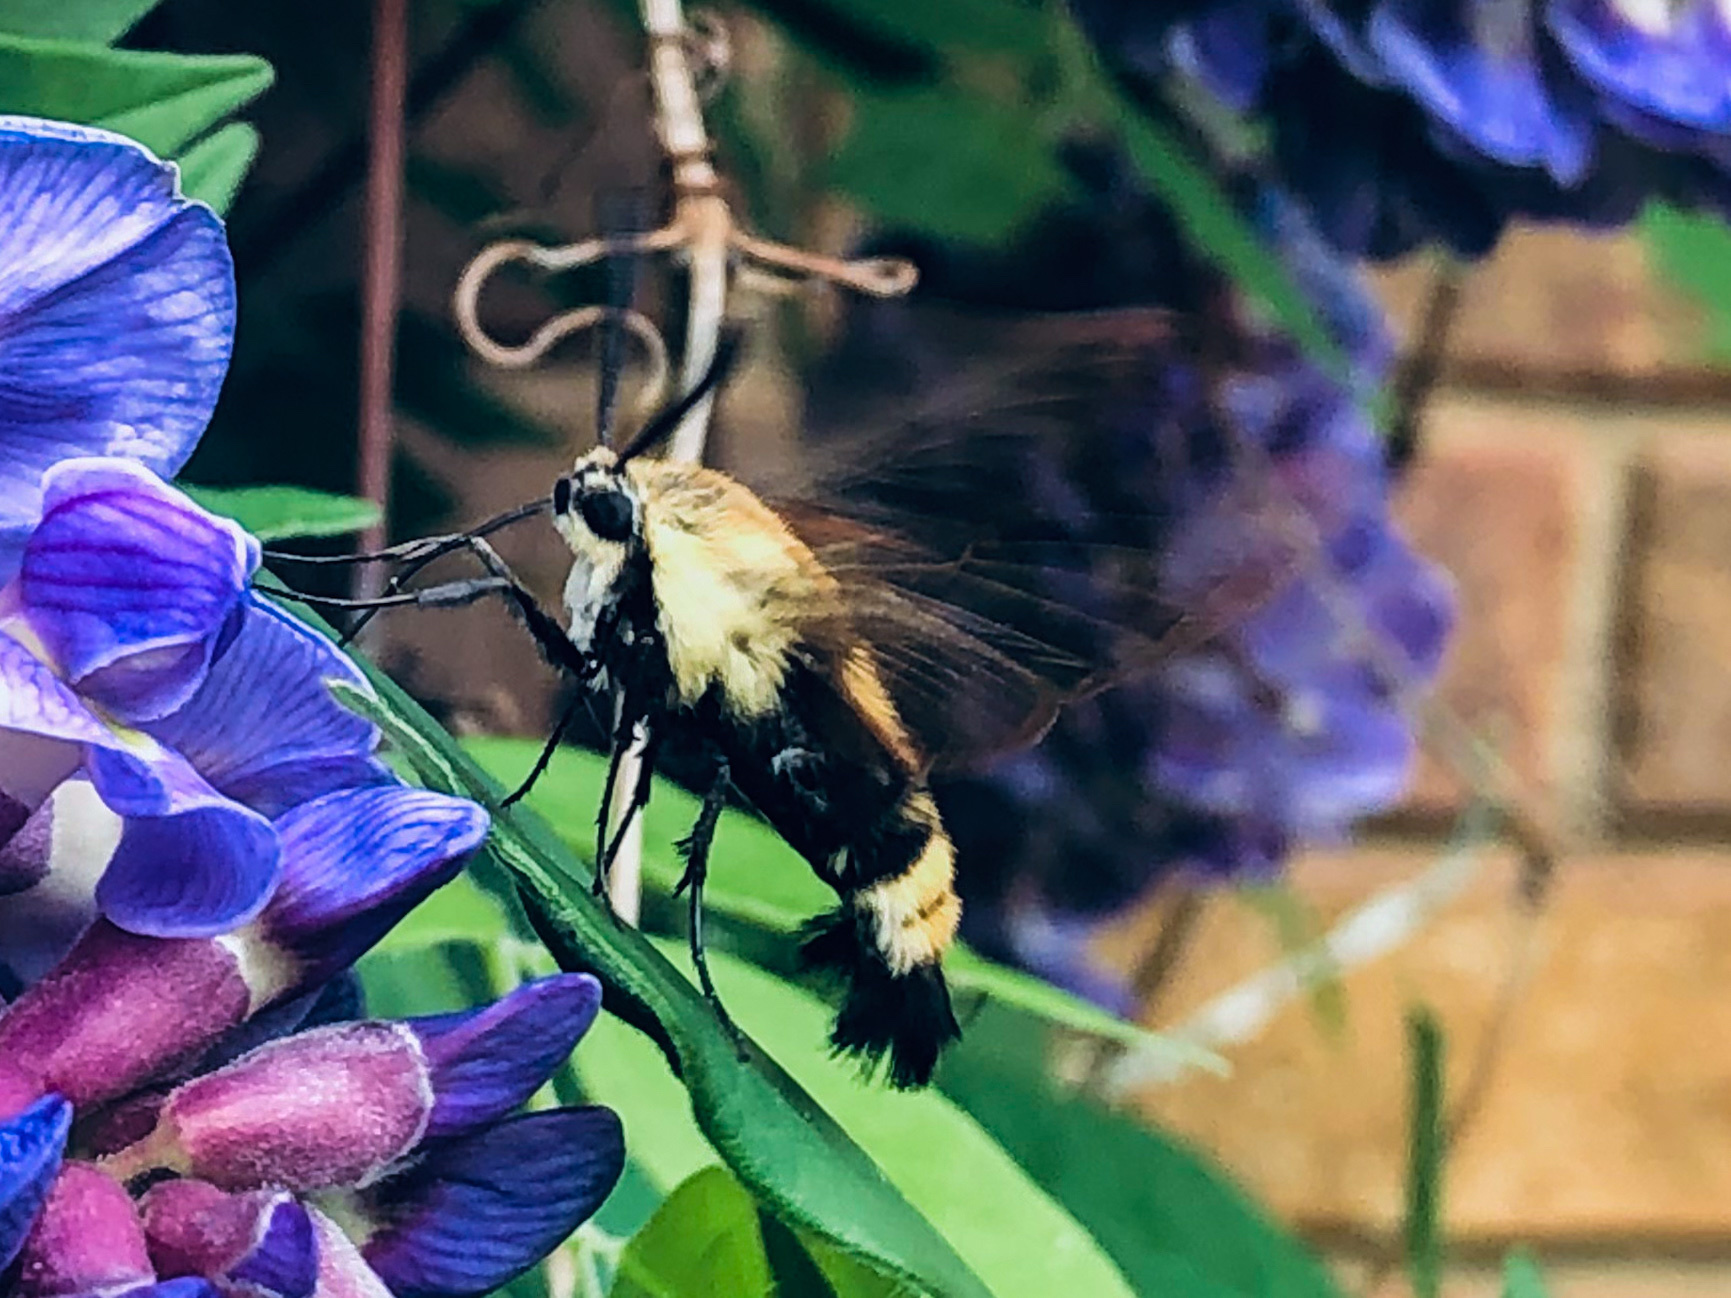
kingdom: Animalia
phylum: Arthropoda
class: Insecta
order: Lepidoptera
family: Sphingidae
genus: Hemaris
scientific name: Hemaris diffinis
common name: Bumblebee moth
